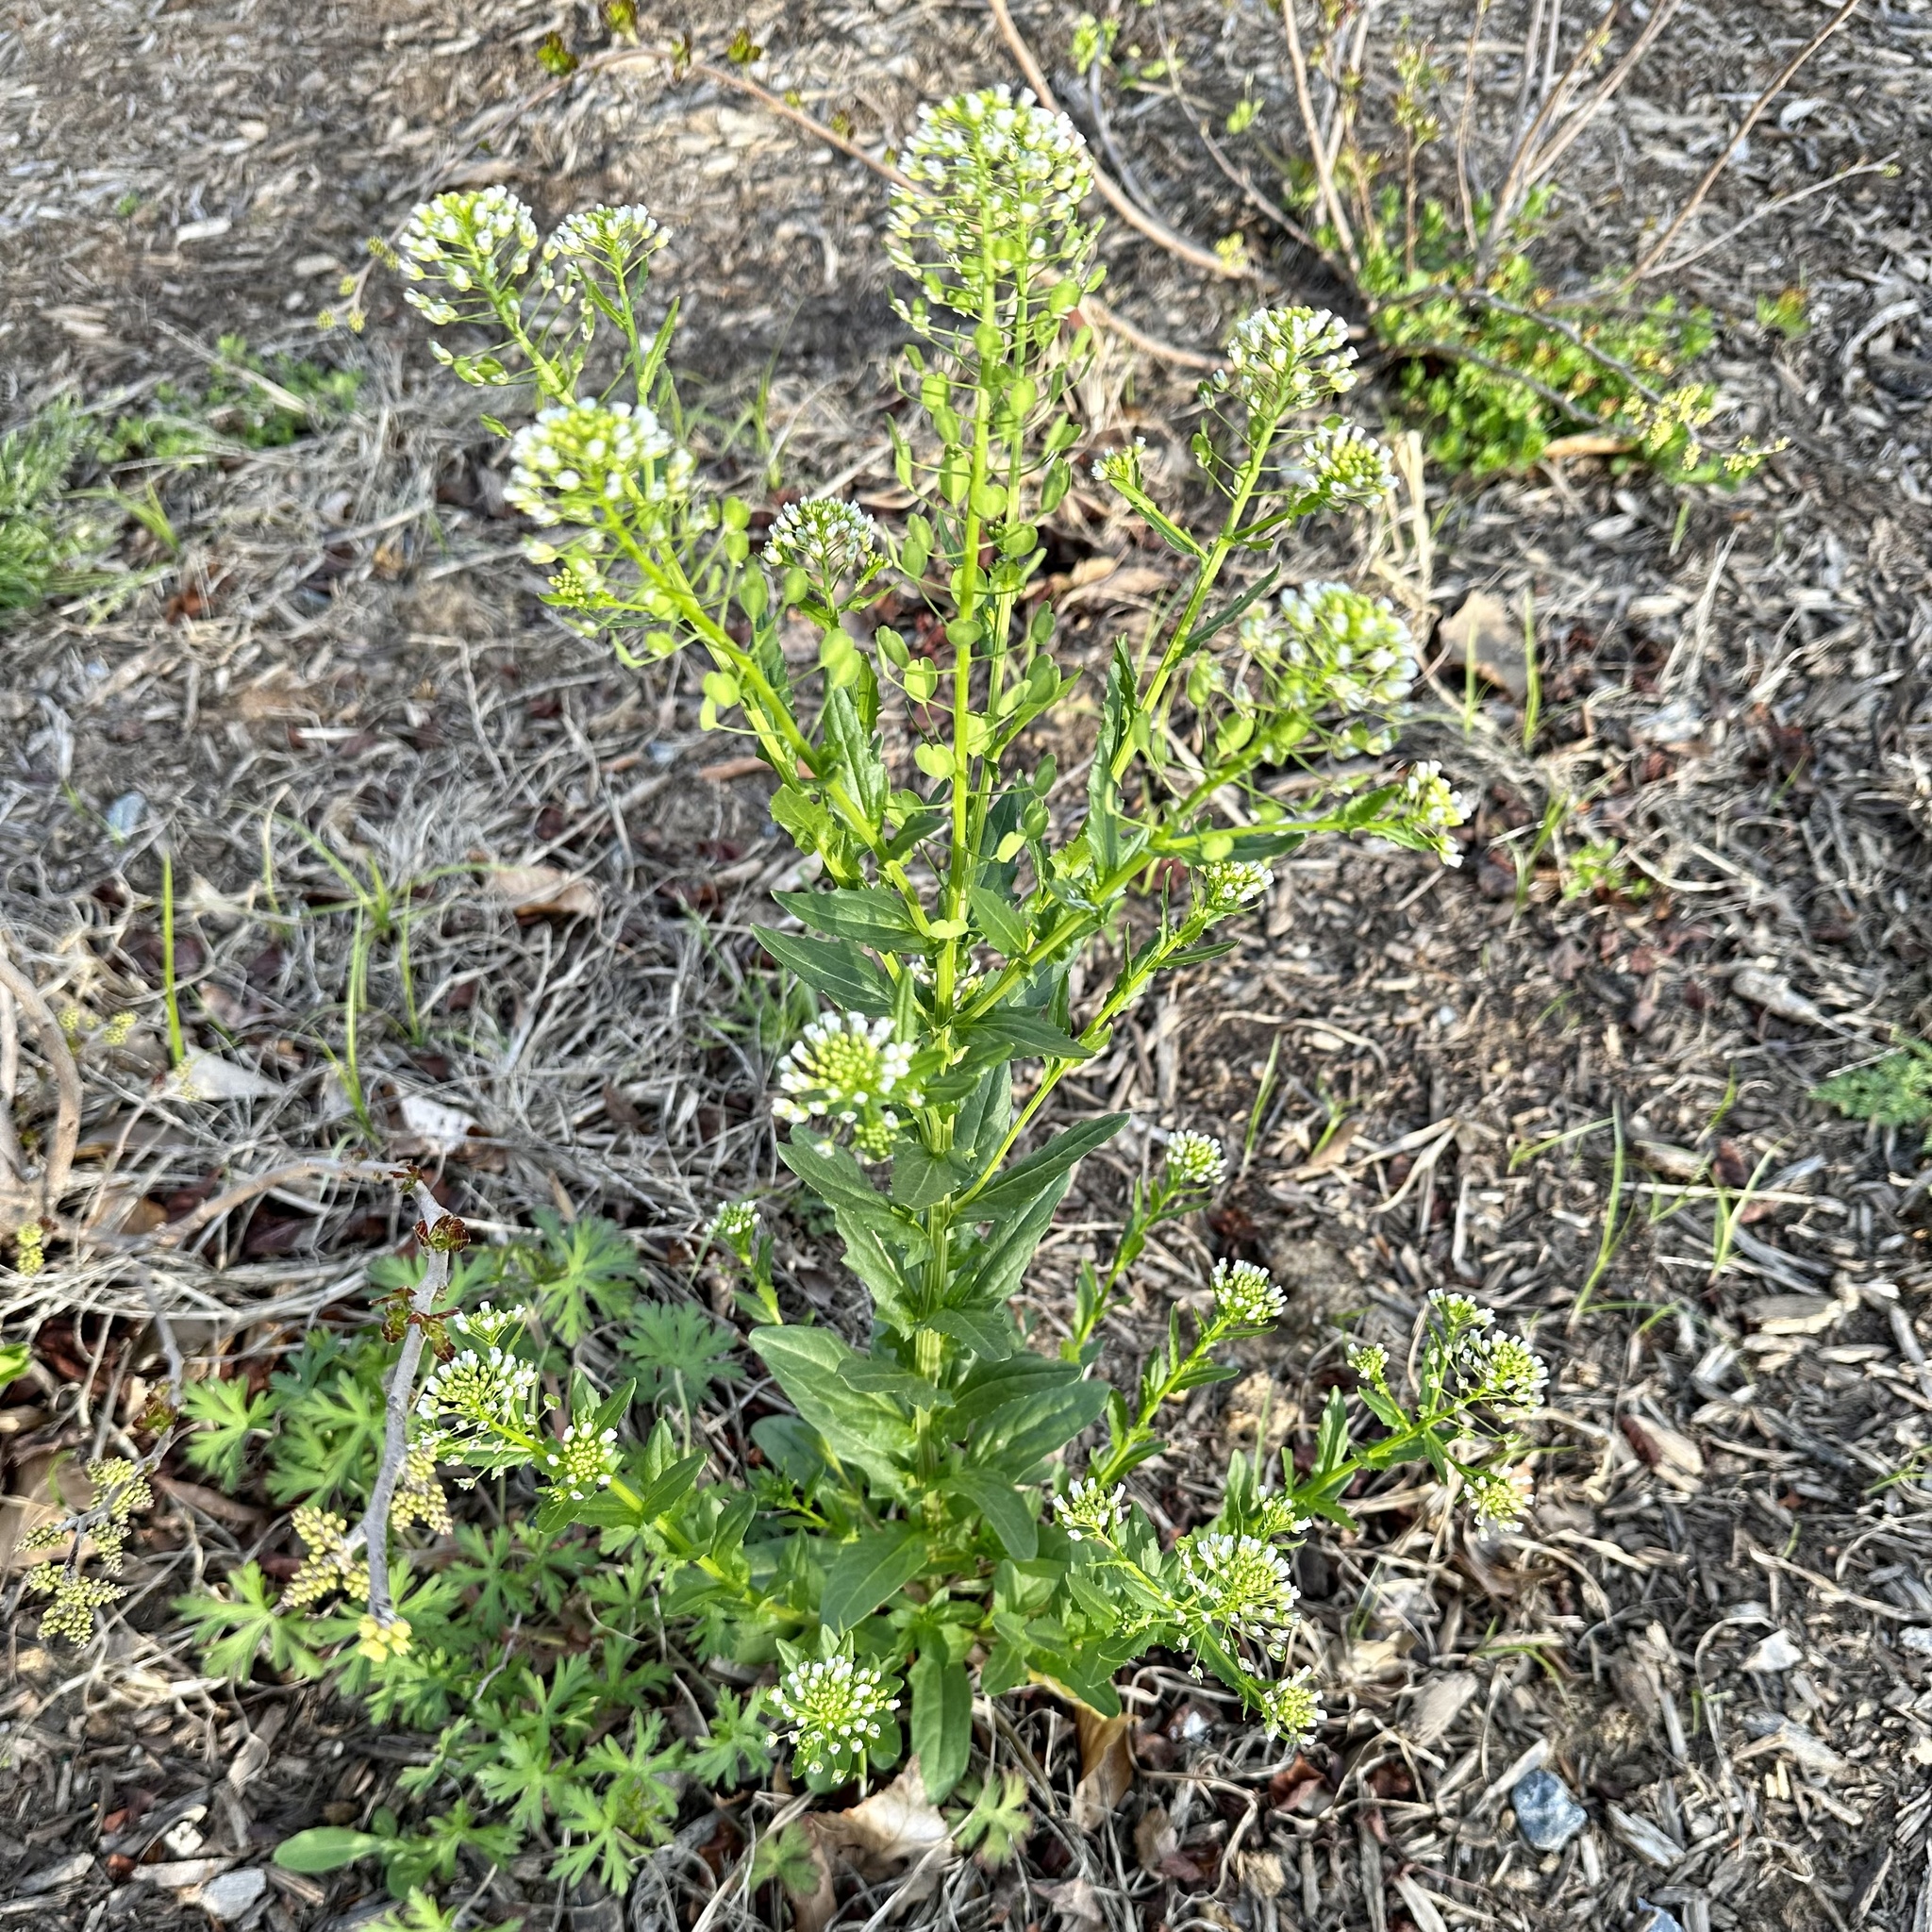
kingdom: Plantae
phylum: Tracheophyta
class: Magnoliopsida
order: Brassicales
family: Brassicaceae
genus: Thlaspi
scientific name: Thlaspi arvense
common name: Field pennycress
